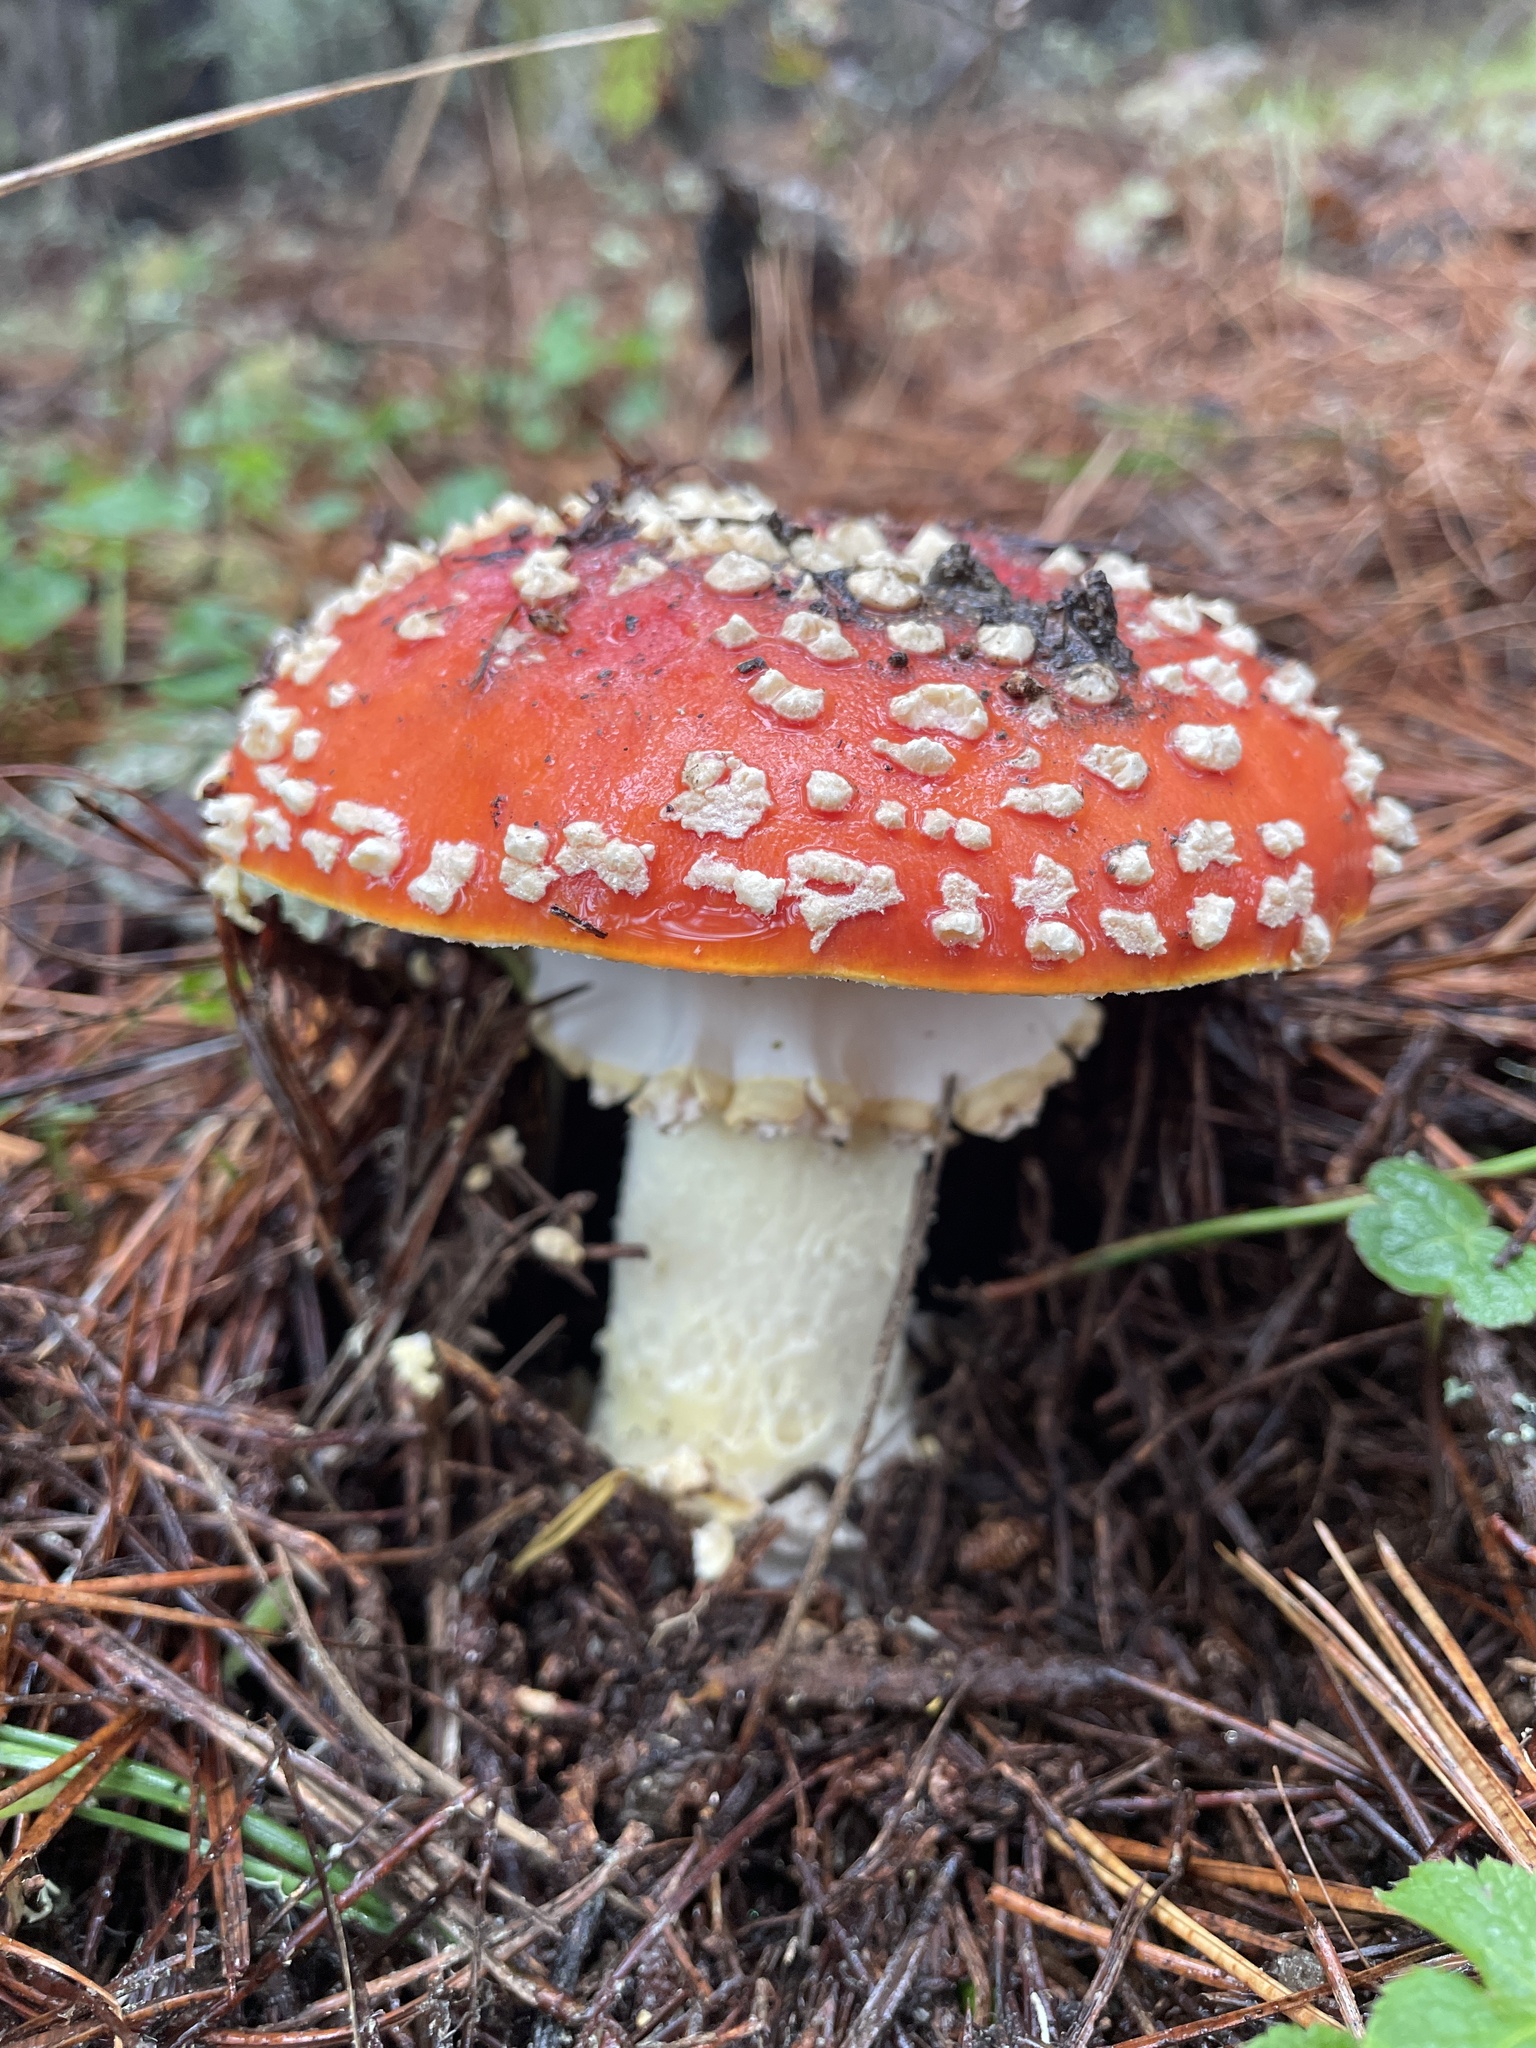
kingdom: Fungi
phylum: Basidiomycota
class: Agaricomycetes
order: Agaricales
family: Amanitaceae
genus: Amanita
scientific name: Amanita muscaria
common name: Fly agaric
